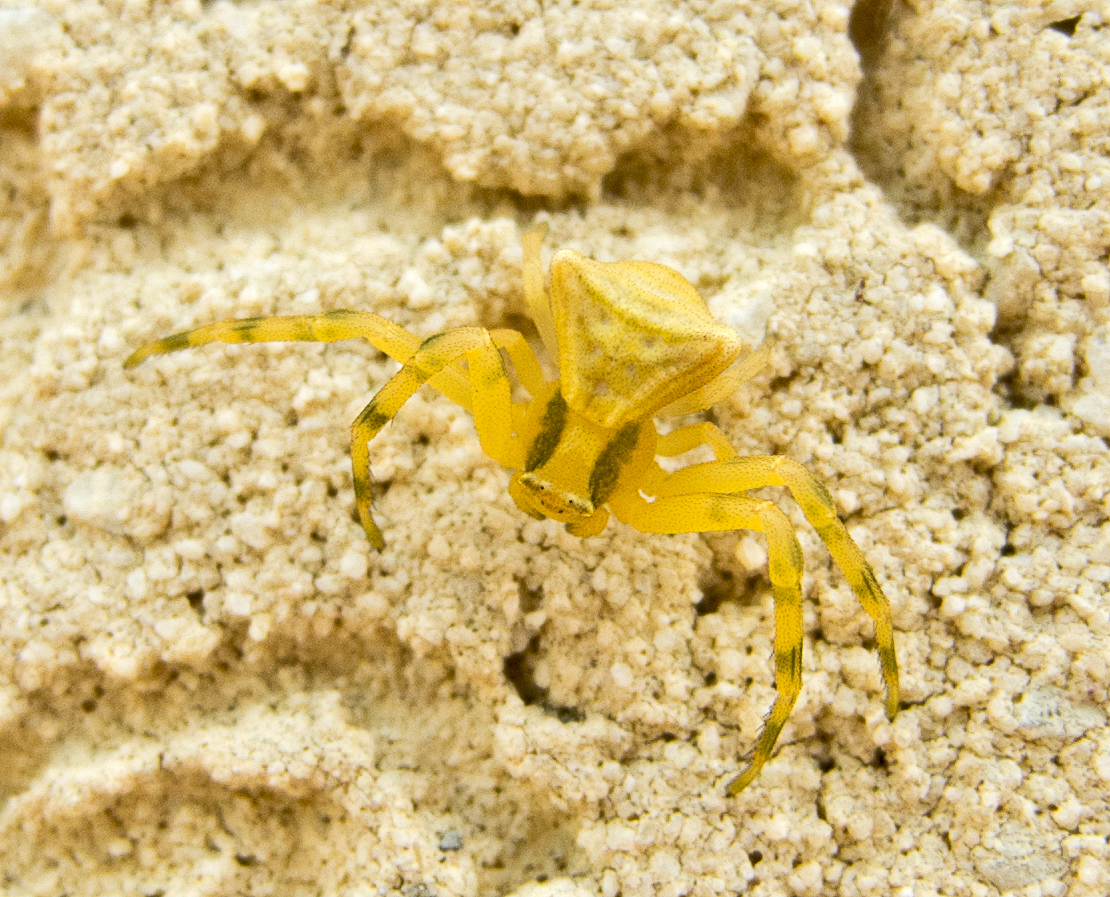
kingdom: Animalia
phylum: Arthropoda
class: Arachnida
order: Araneae
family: Thomisidae
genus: Thomisus
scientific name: Thomisus onustus
